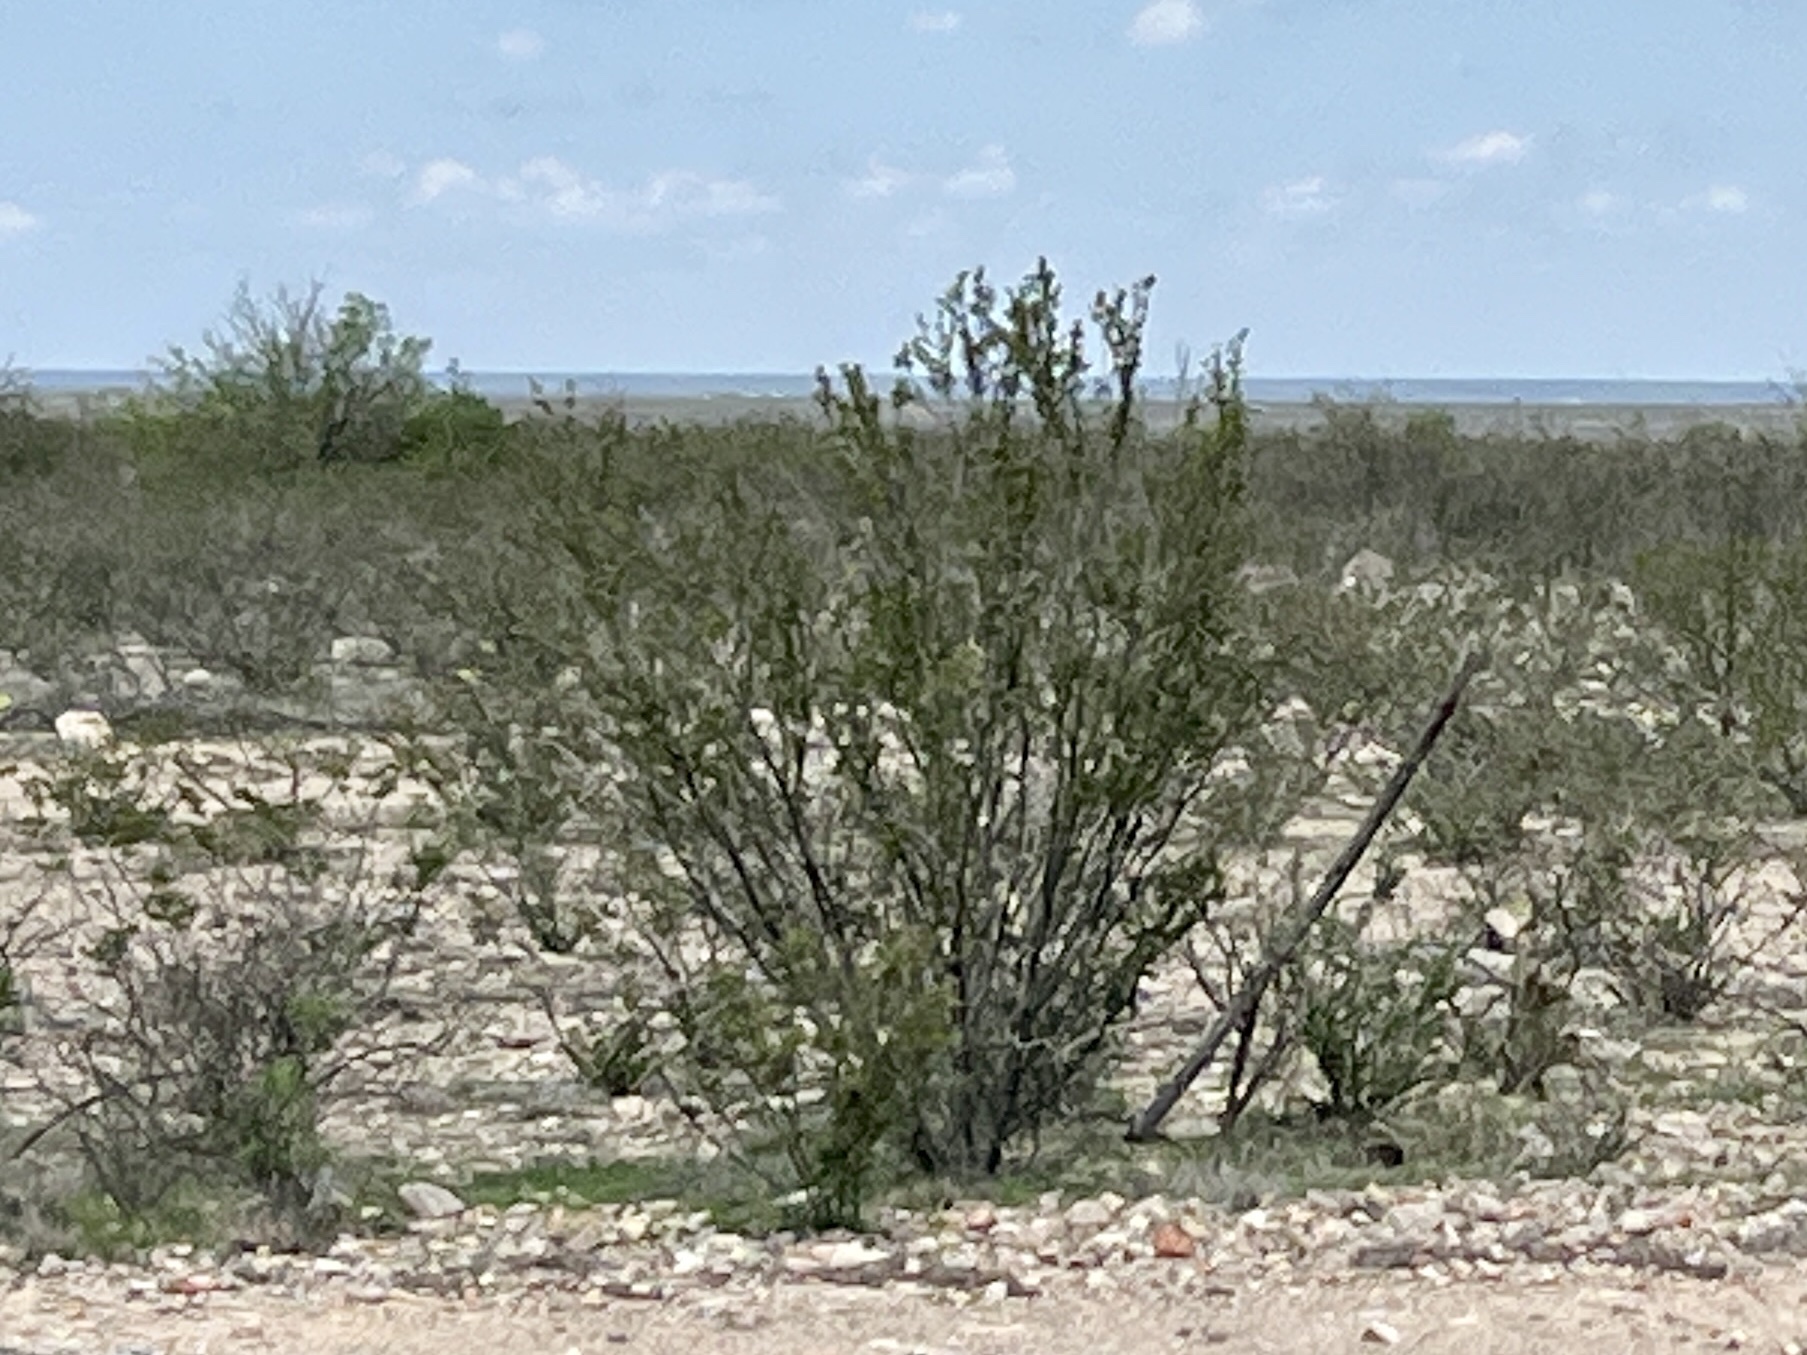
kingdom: Plantae
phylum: Tracheophyta
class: Magnoliopsida
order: Zygophyllales
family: Zygophyllaceae
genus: Larrea
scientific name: Larrea tridentata
